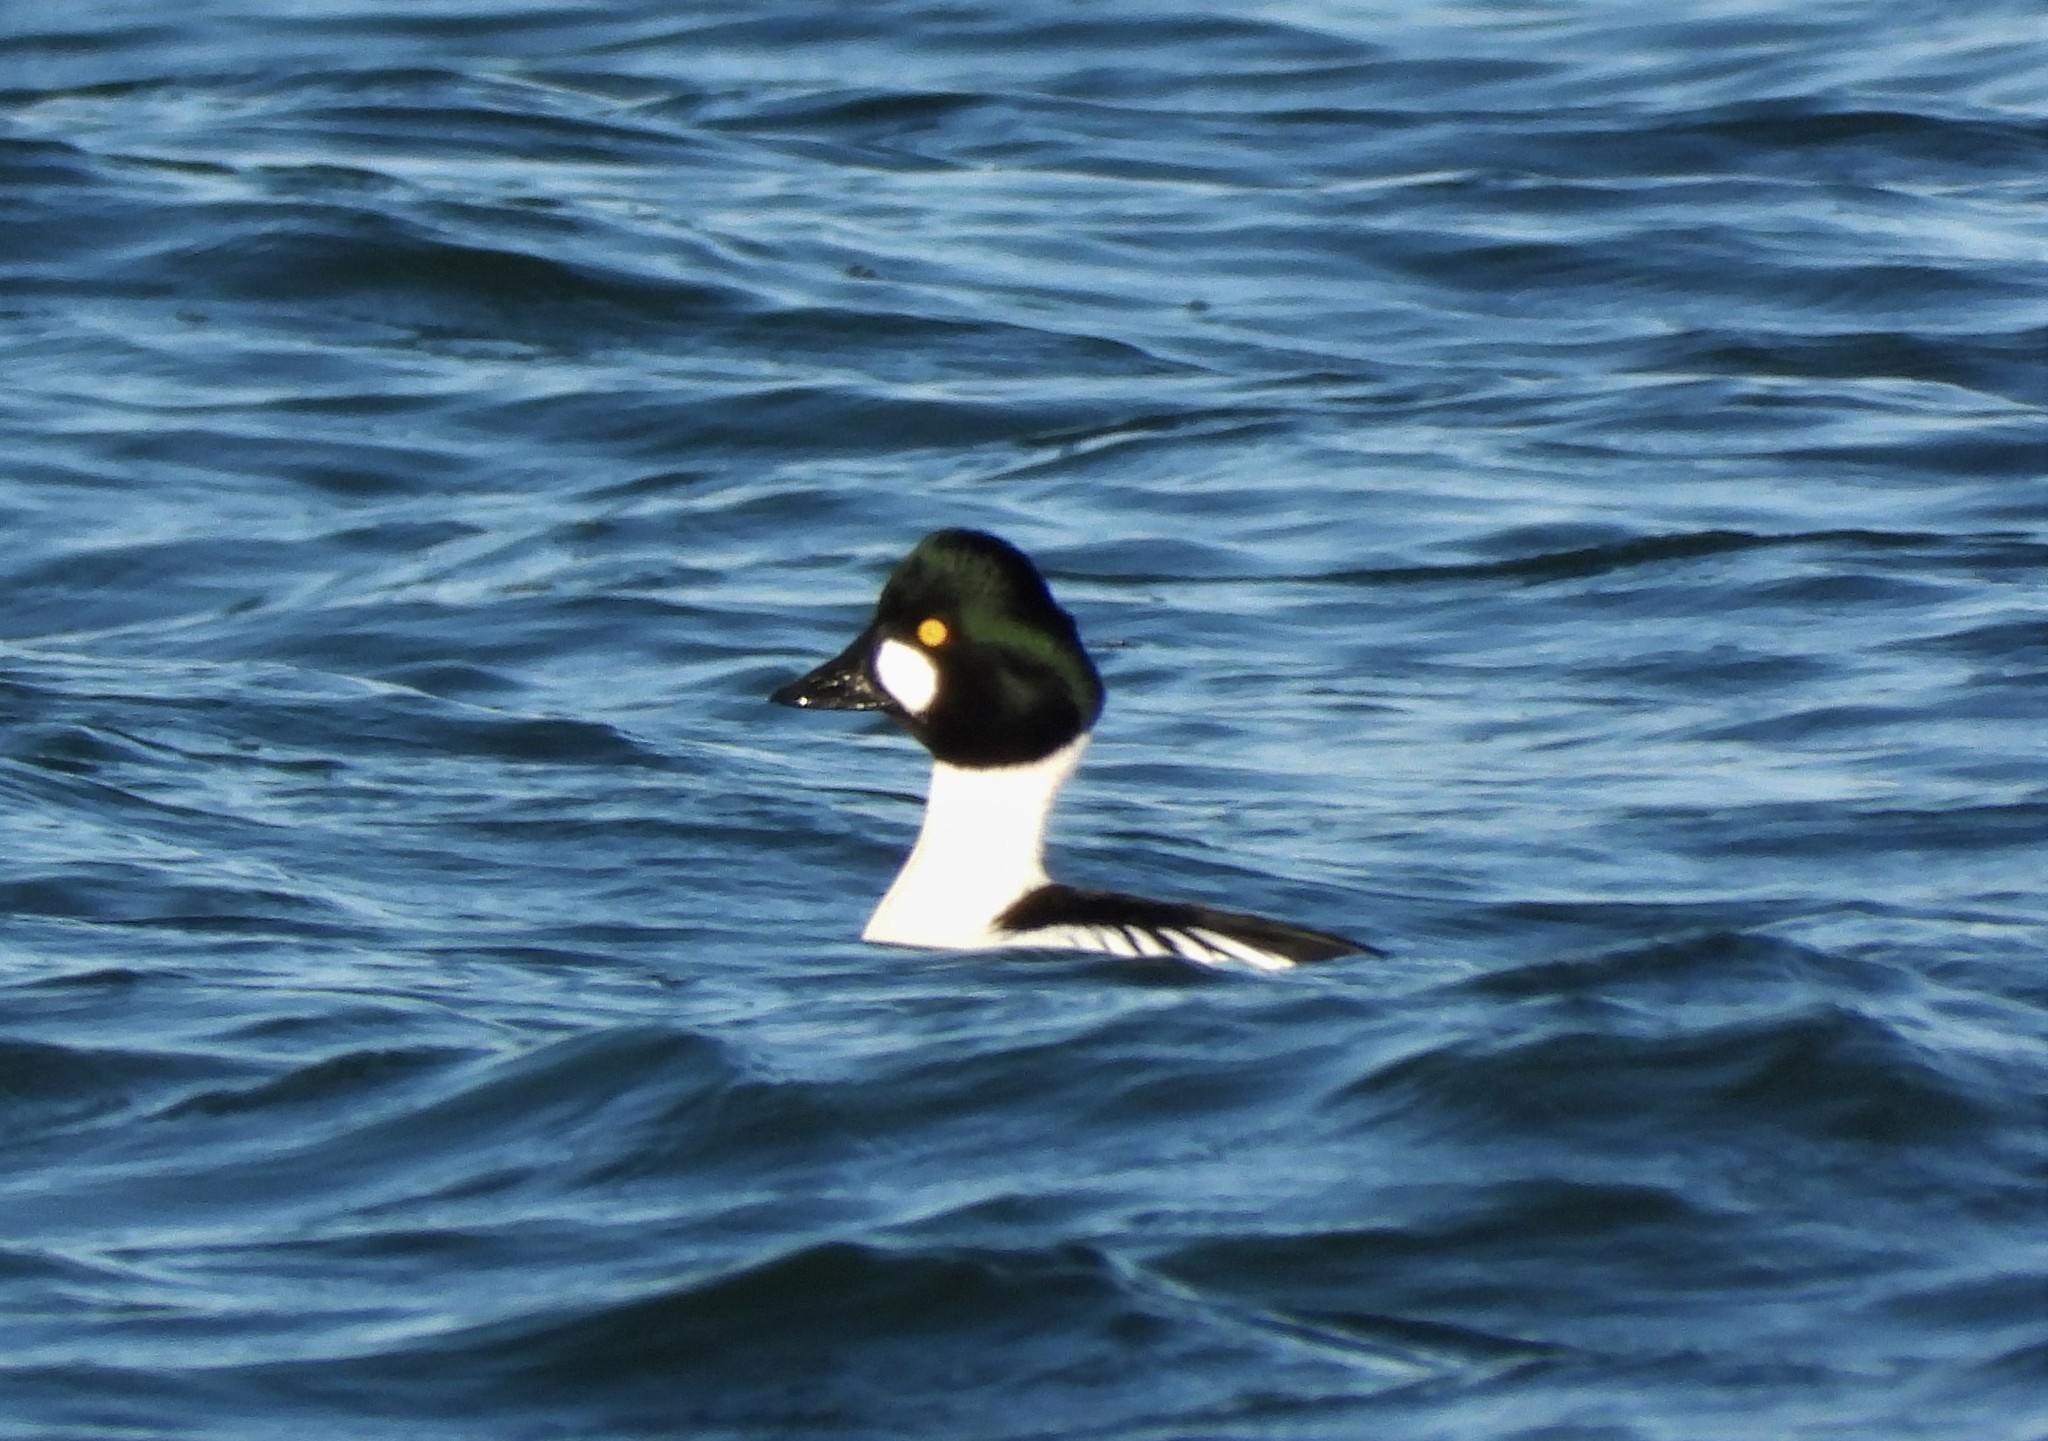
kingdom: Animalia
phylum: Chordata
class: Aves
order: Anseriformes
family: Anatidae
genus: Bucephala
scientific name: Bucephala clangula
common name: Common goldeneye
